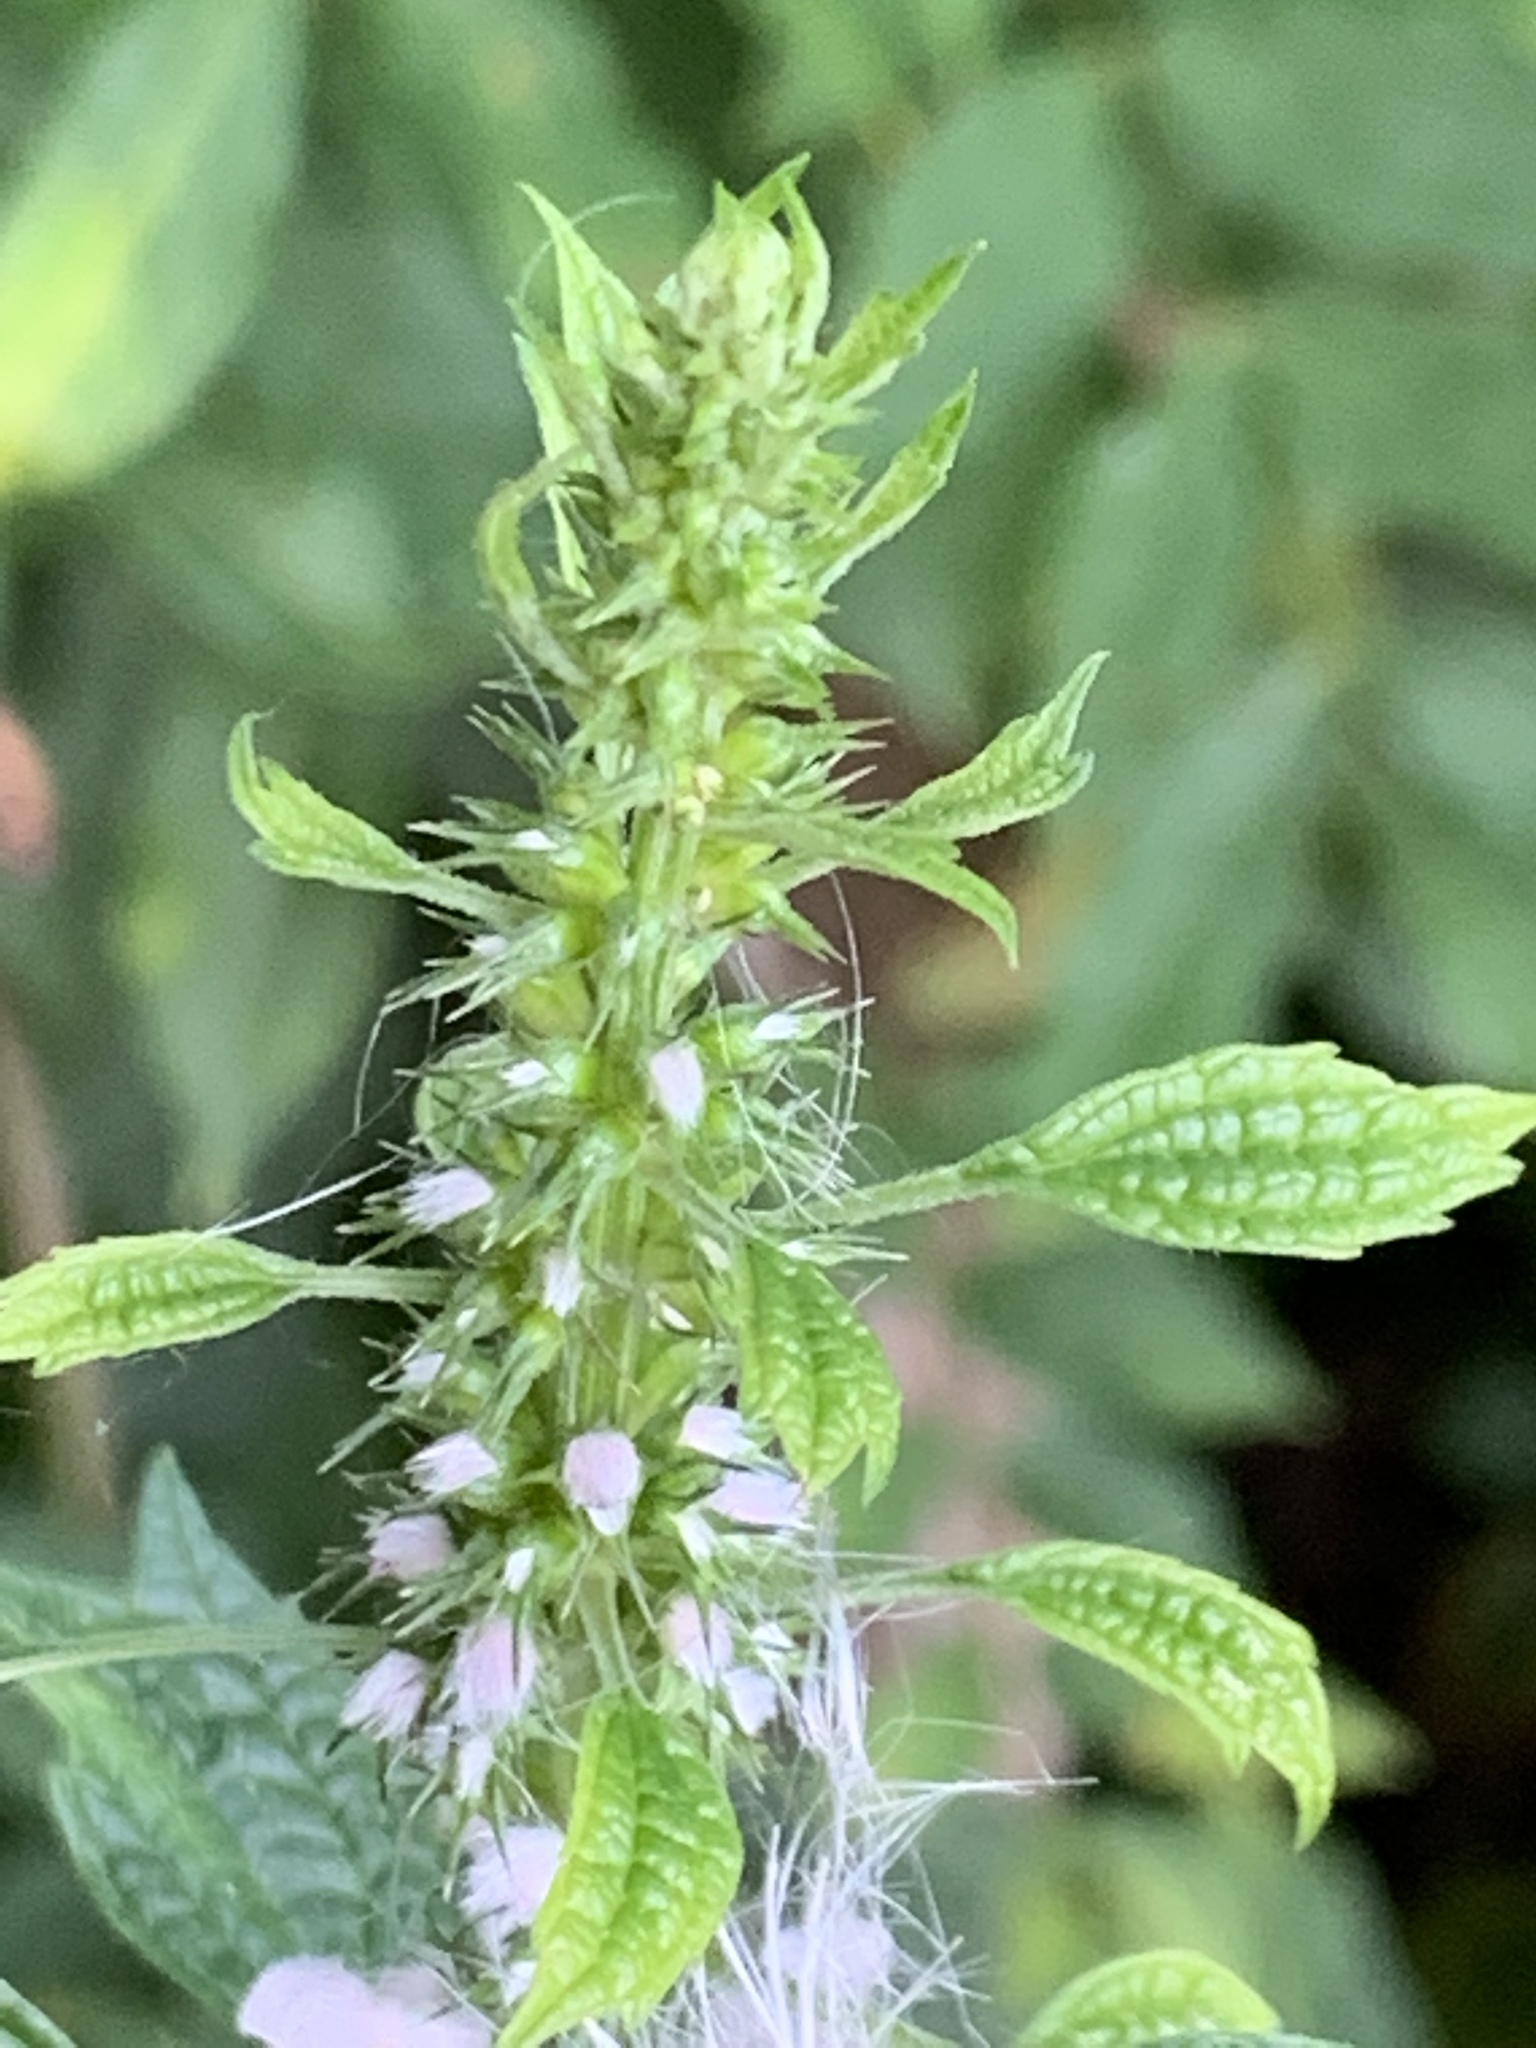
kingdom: Plantae
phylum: Tracheophyta
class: Magnoliopsida
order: Lamiales
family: Lamiaceae
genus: Leonurus
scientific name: Leonurus cardiaca
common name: Motherwort
